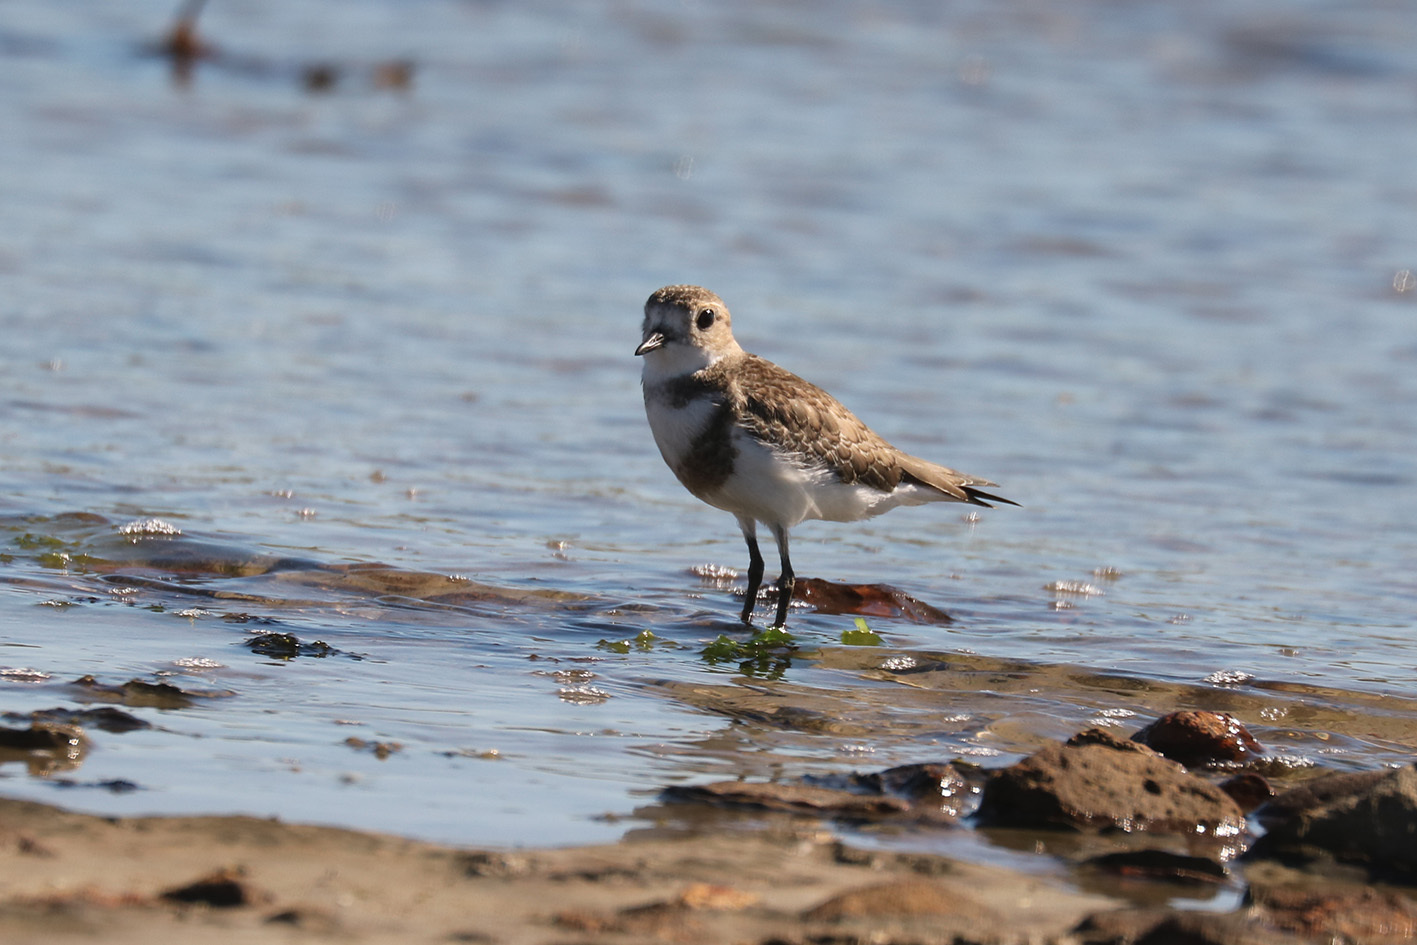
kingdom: Animalia
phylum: Chordata
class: Aves
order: Charadriiformes
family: Charadriidae
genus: Anarhynchus
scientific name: Anarhynchus
